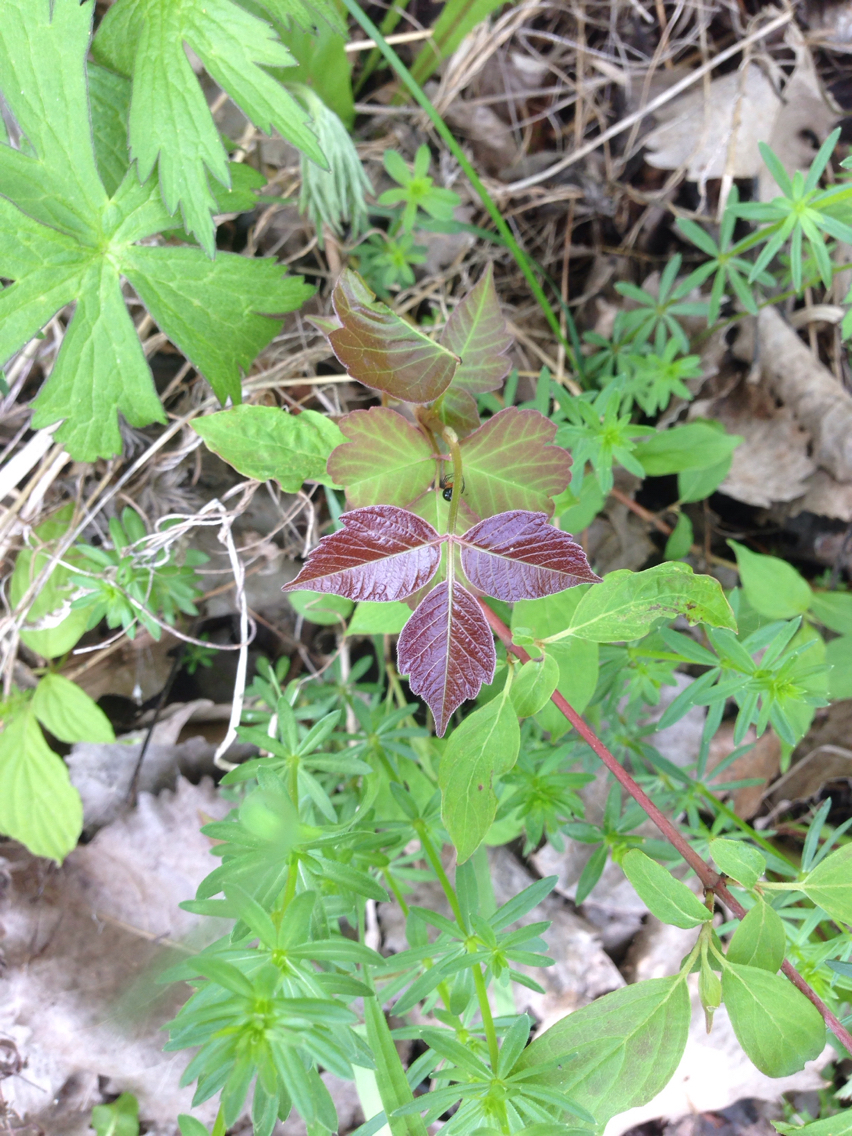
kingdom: Plantae
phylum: Tracheophyta
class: Magnoliopsida
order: Sapindales
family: Anacardiaceae
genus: Toxicodendron
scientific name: Toxicodendron radicans
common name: Poison ivy
